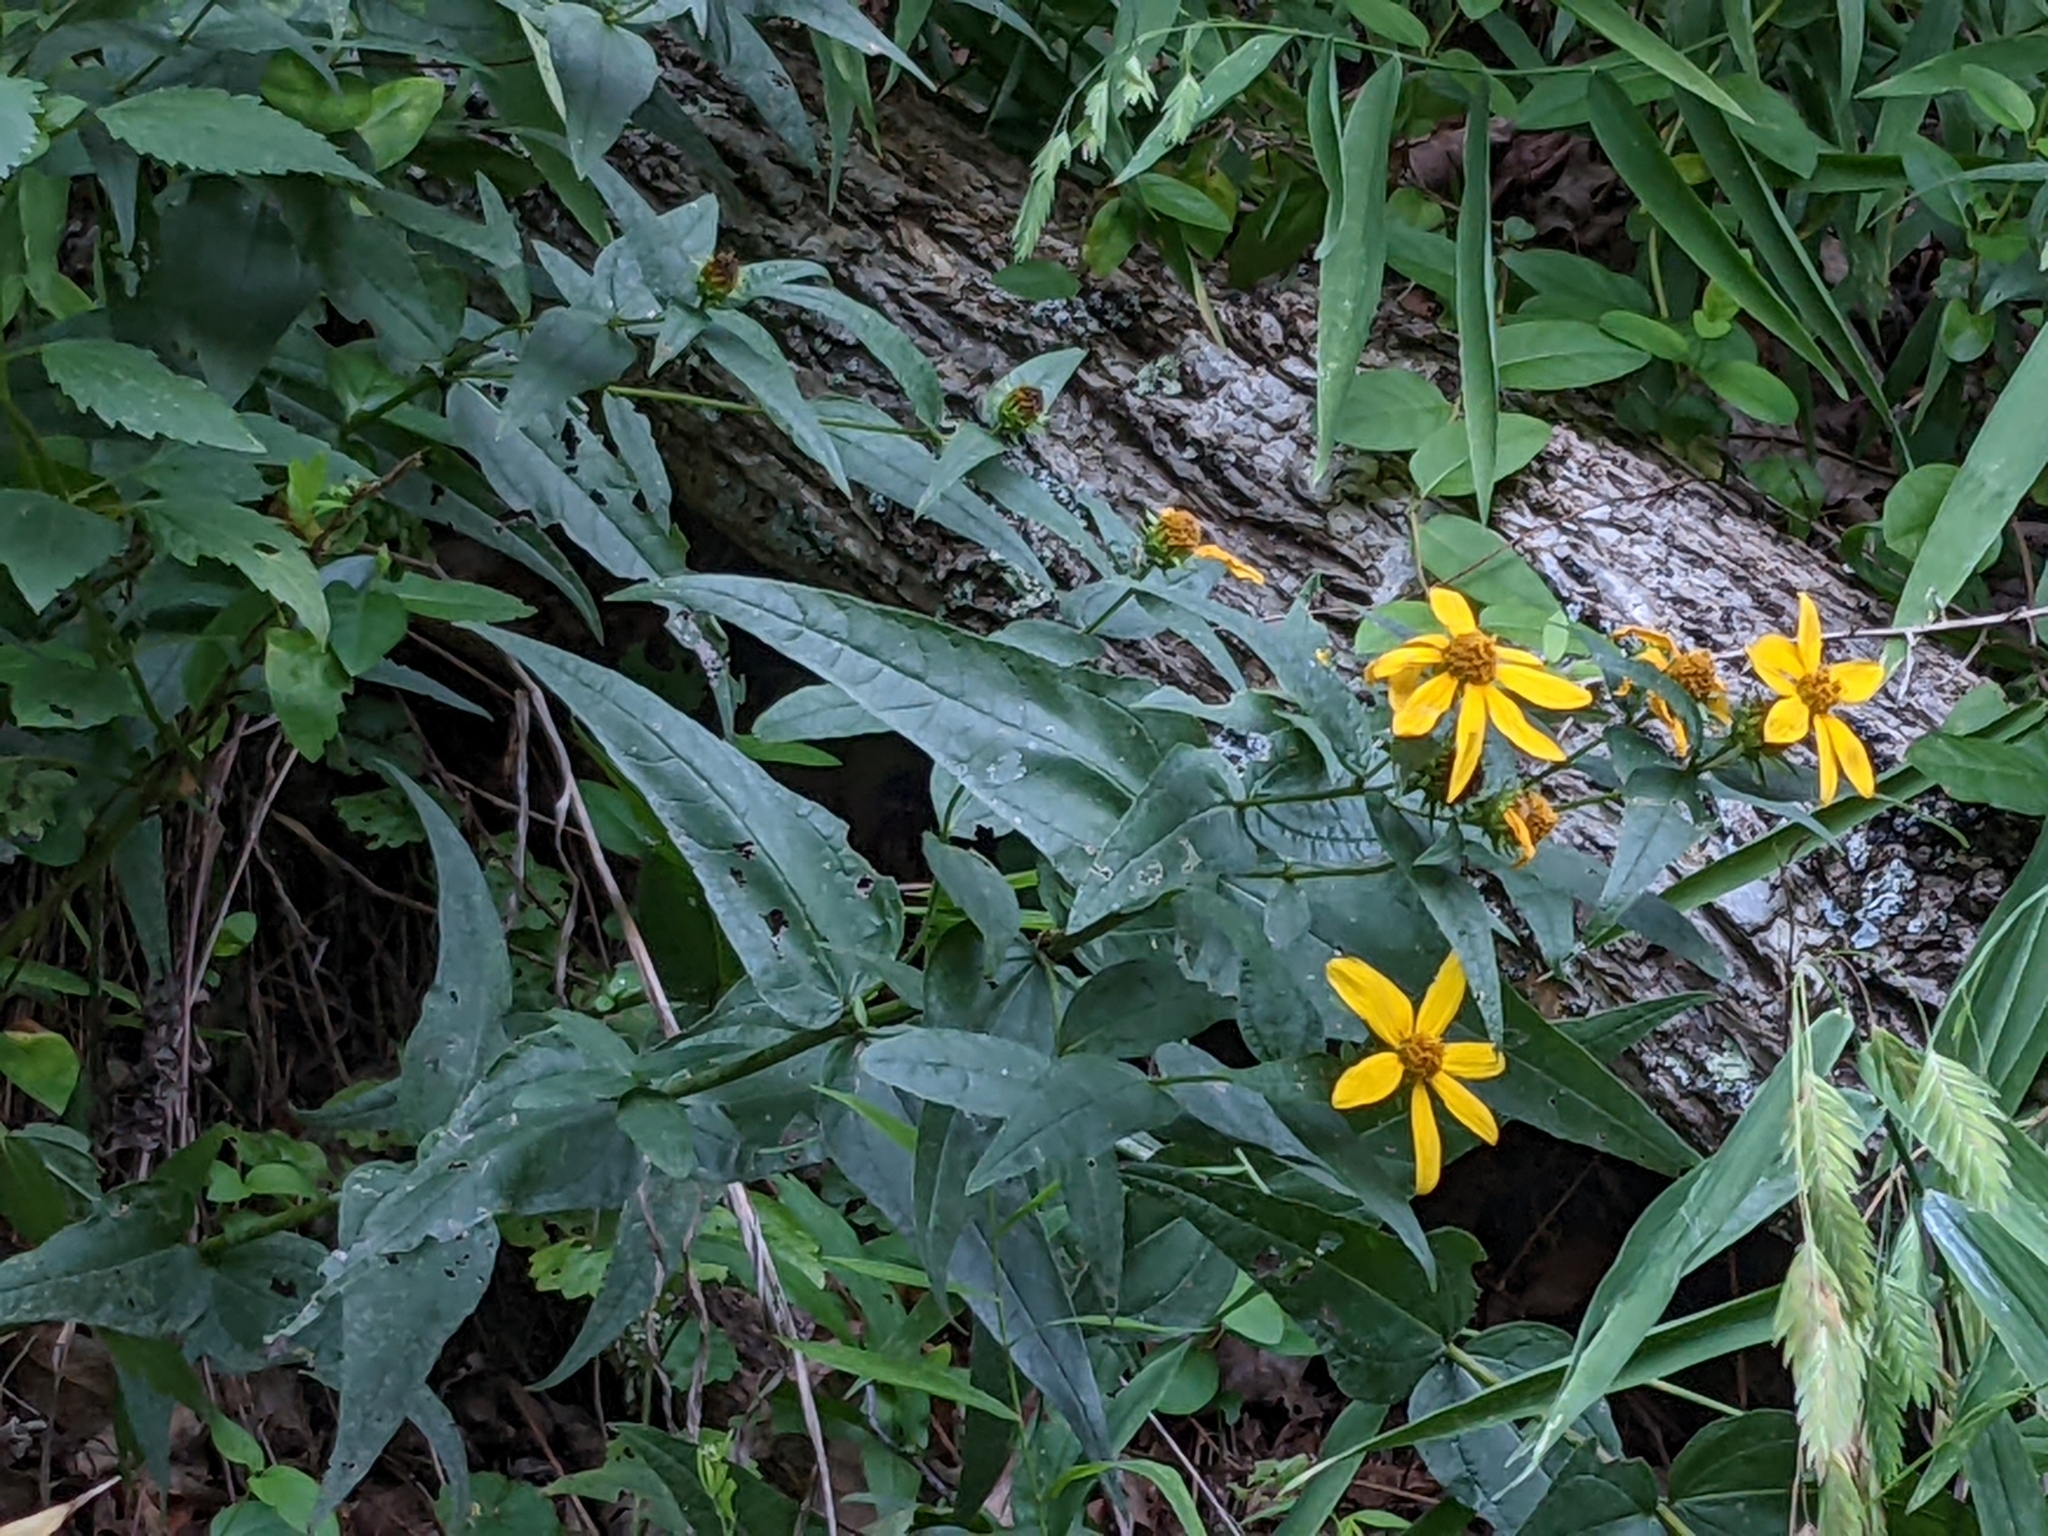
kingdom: Plantae
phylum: Tracheophyta
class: Magnoliopsida
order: Asterales
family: Asteraceae
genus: Helianthus
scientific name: Helianthus divaricatus
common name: Divergent sunflower
